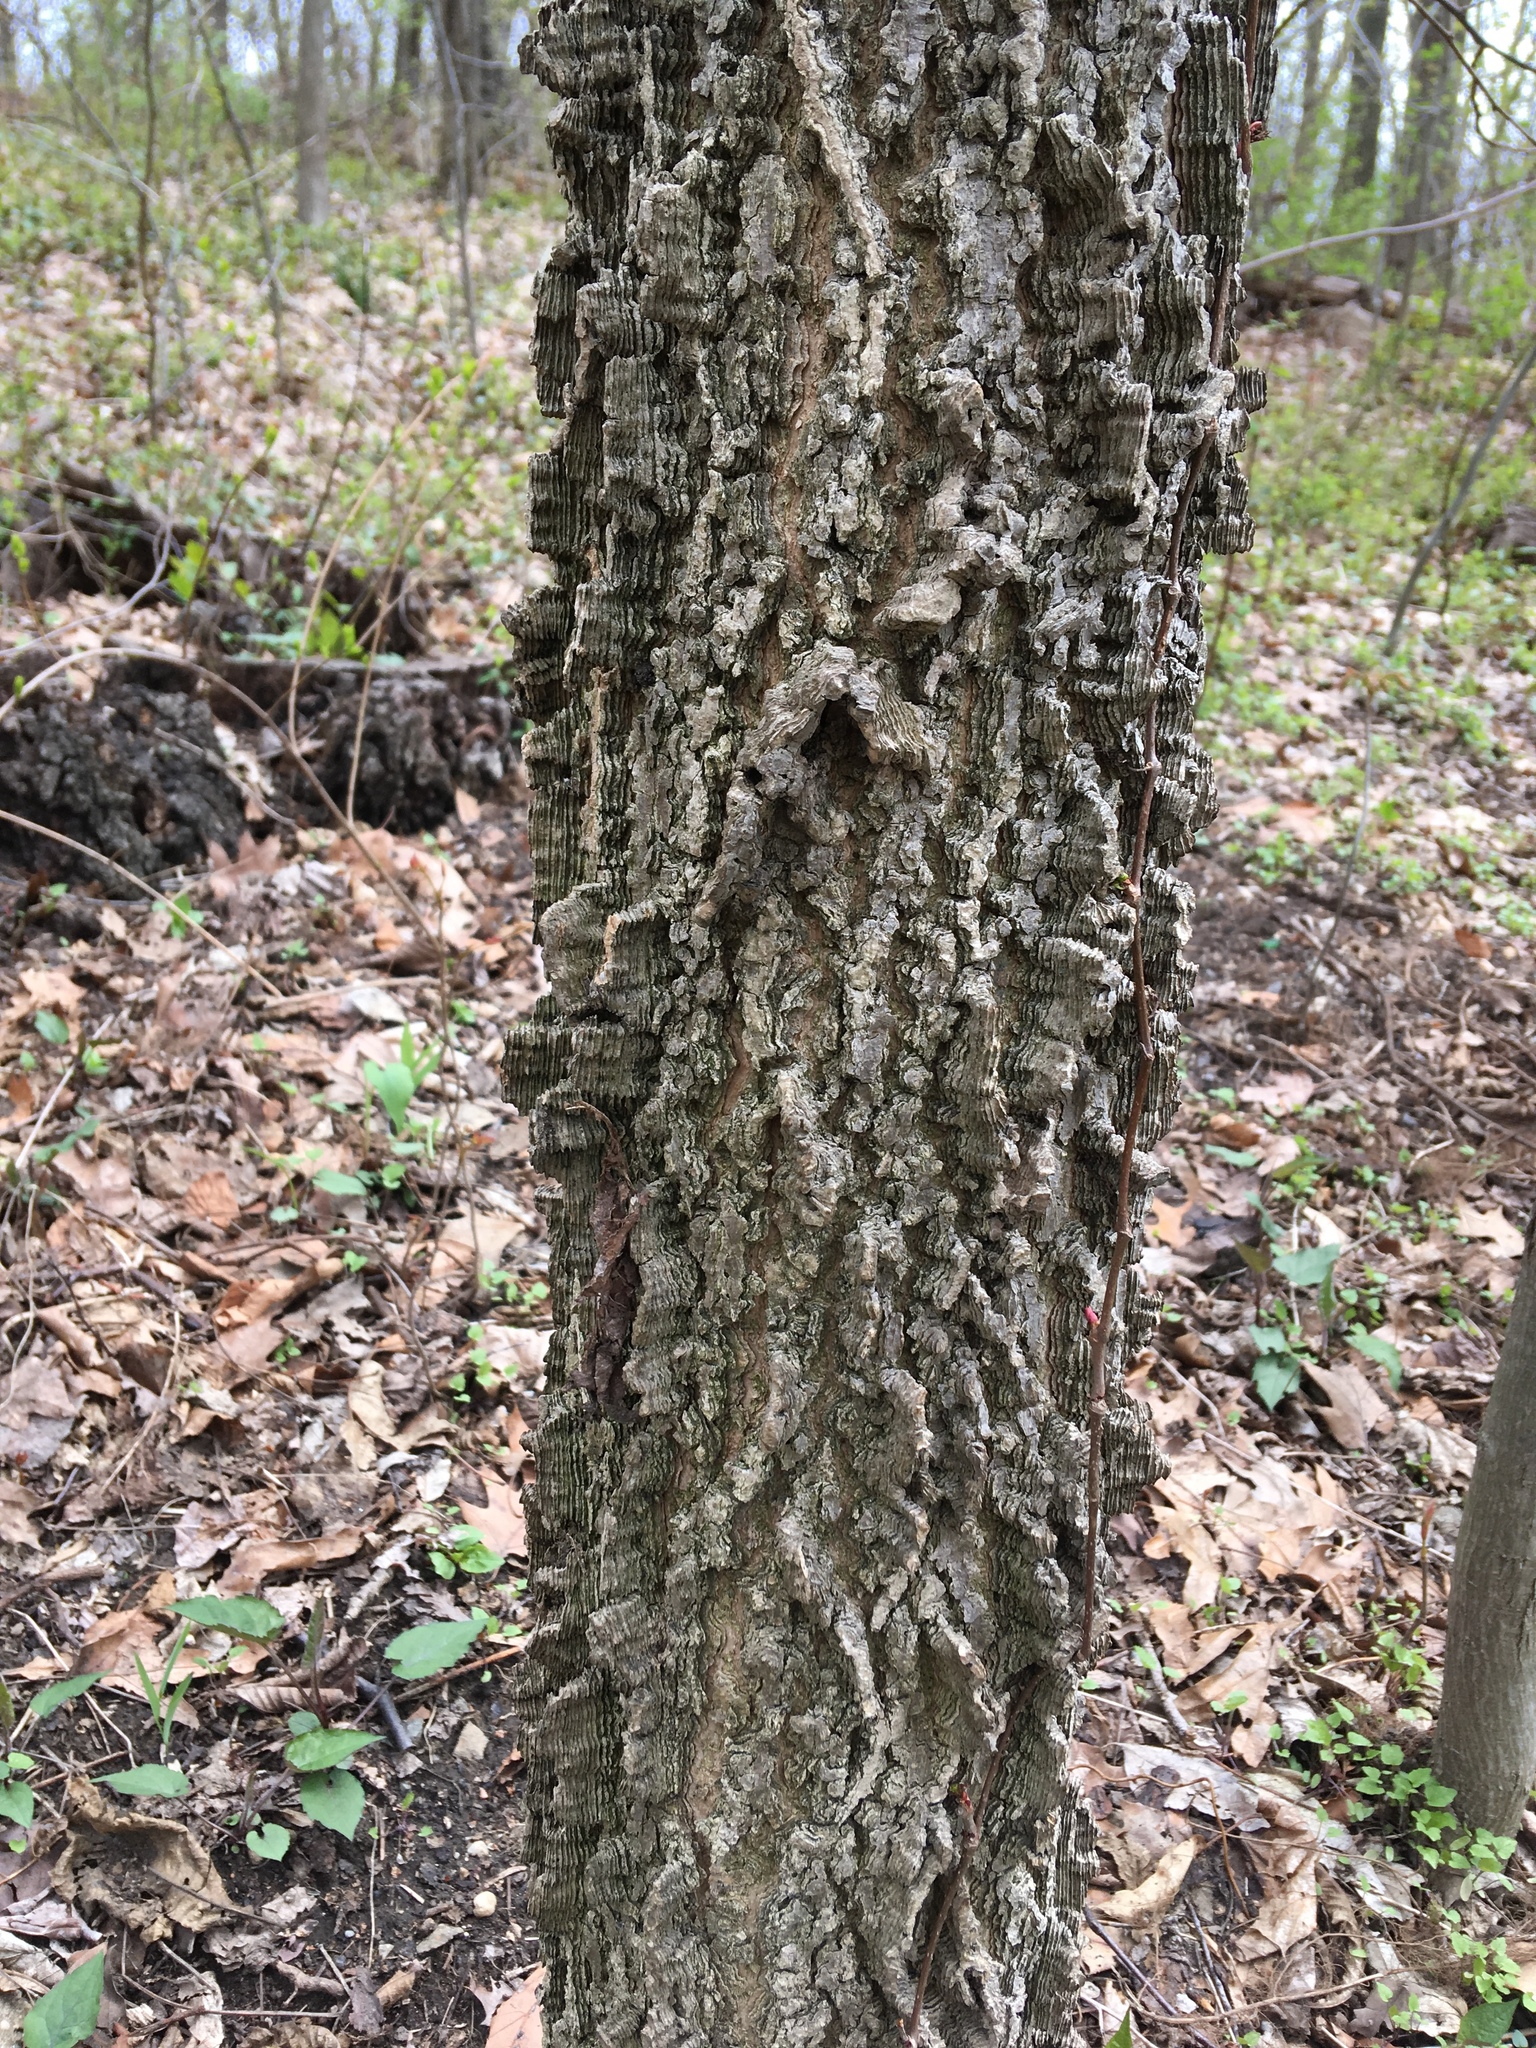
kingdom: Plantae
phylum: Tracheophyta
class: Magnoliopsida
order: Rosales
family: Cannabaceae
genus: Celtis
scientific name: Celtis occidentalis
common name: Common hackberry
